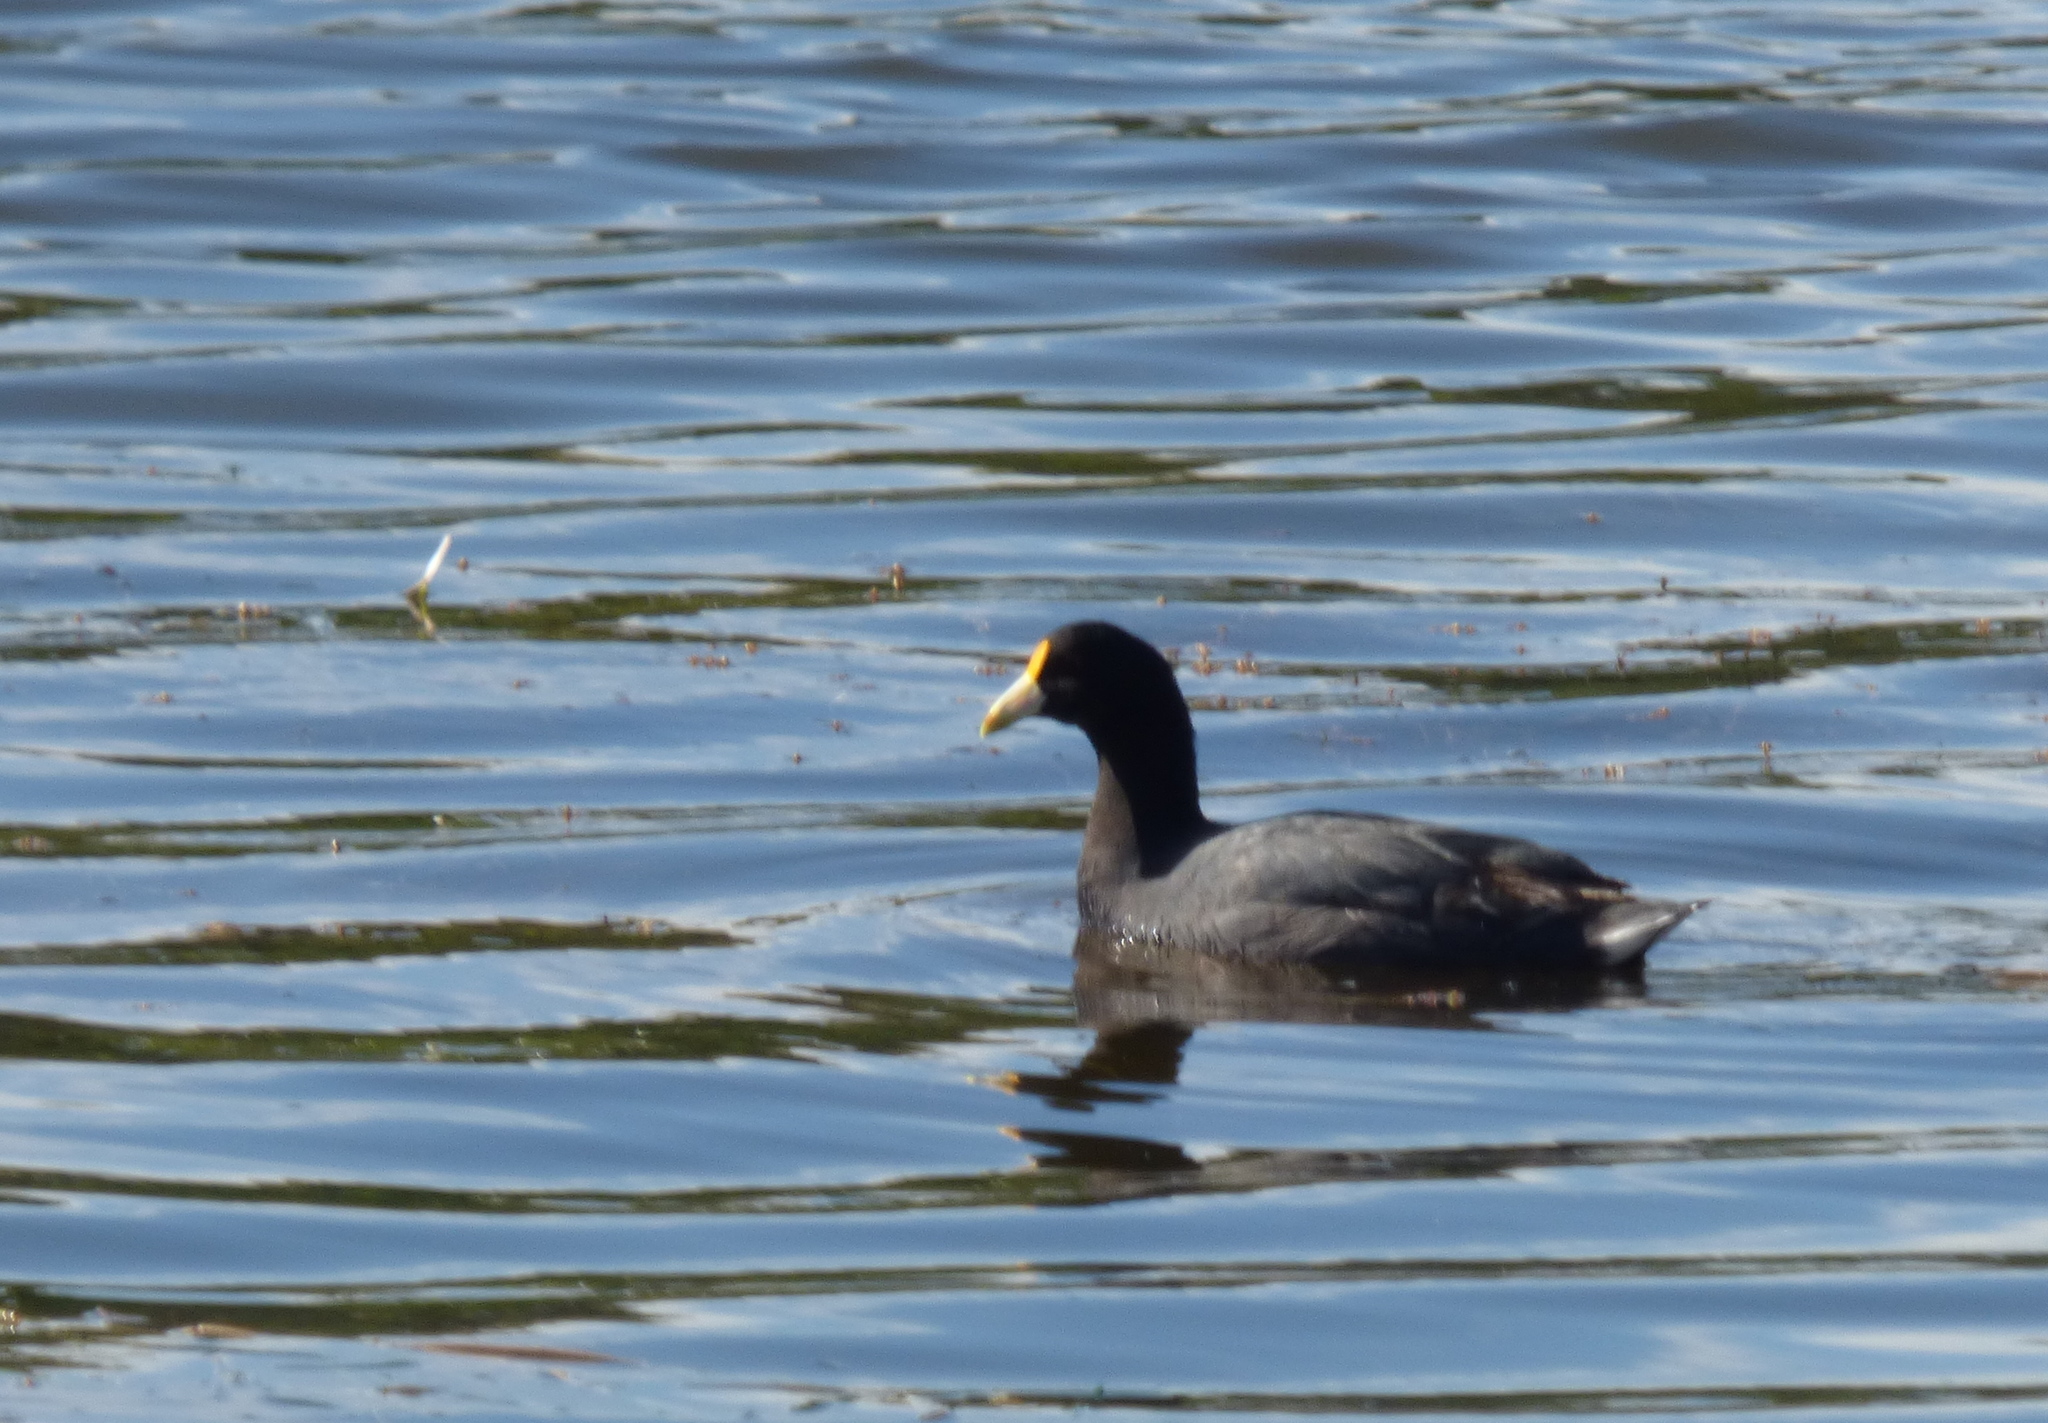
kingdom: Animalia
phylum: Chordata
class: Aves
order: Gruiformes
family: Rallidae
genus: Fulica
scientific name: Fulica leucoptera
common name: White-winged coot
